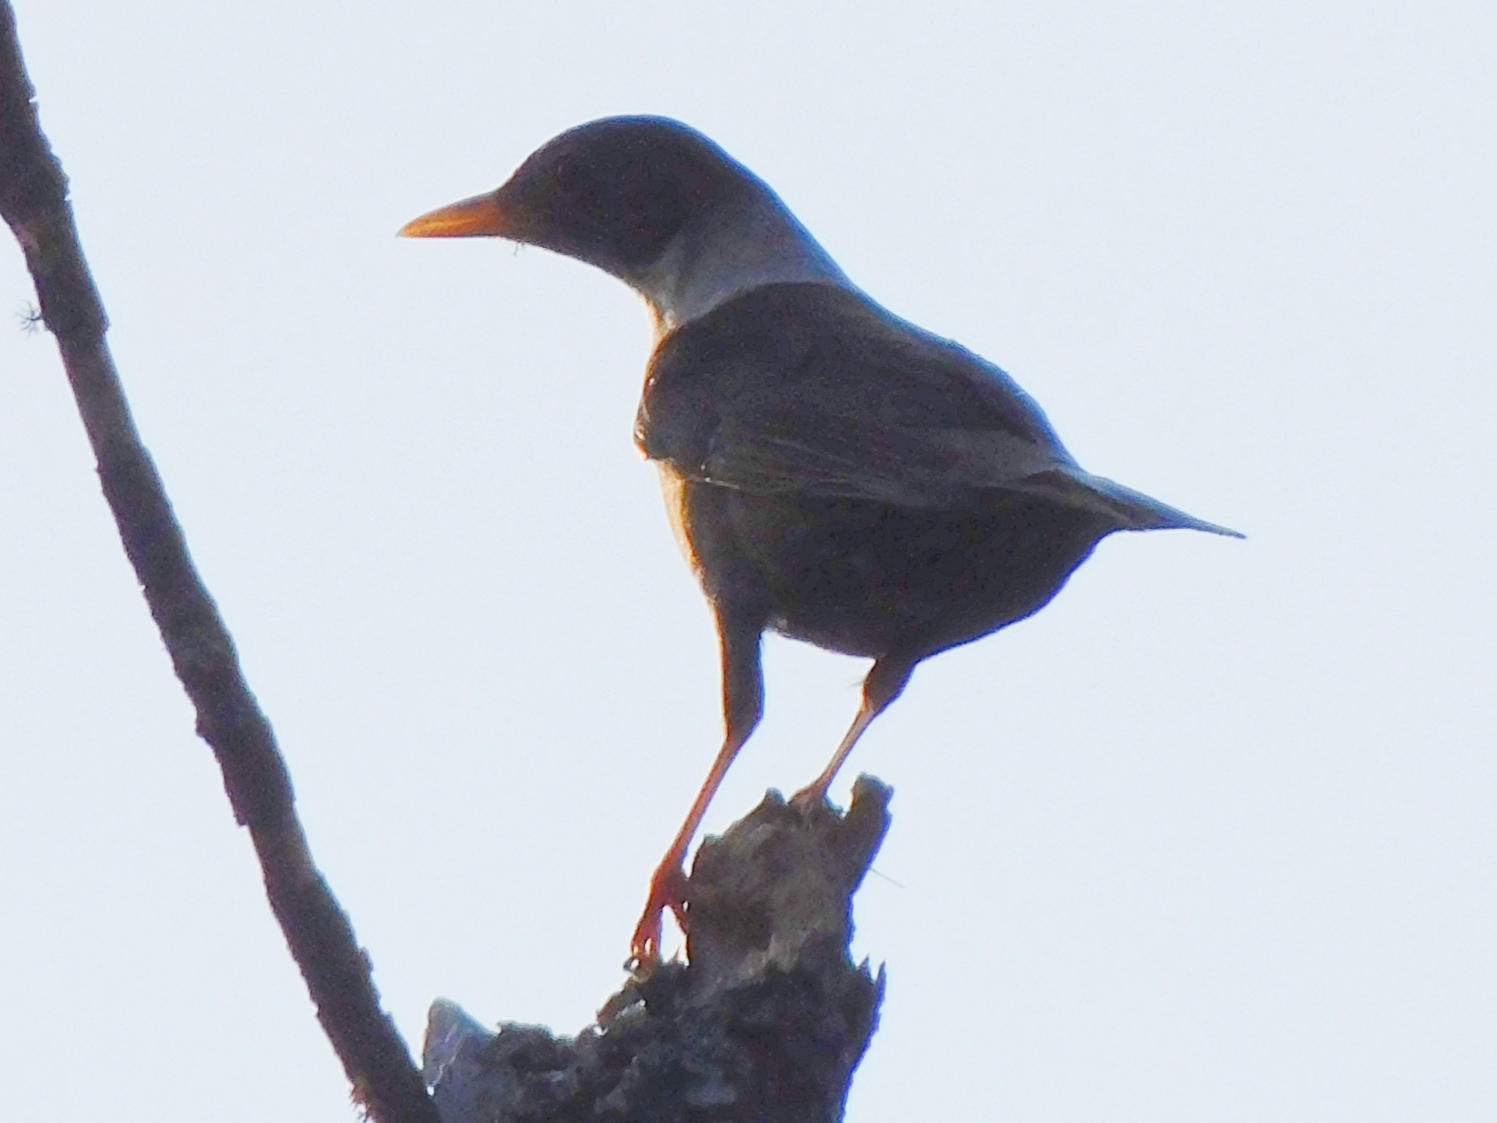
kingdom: Animalia
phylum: Chordata
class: Aves
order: Passeriformes
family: Turdidae
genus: Turdus
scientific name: Turdus albocinctus
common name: White-collared blackbird
